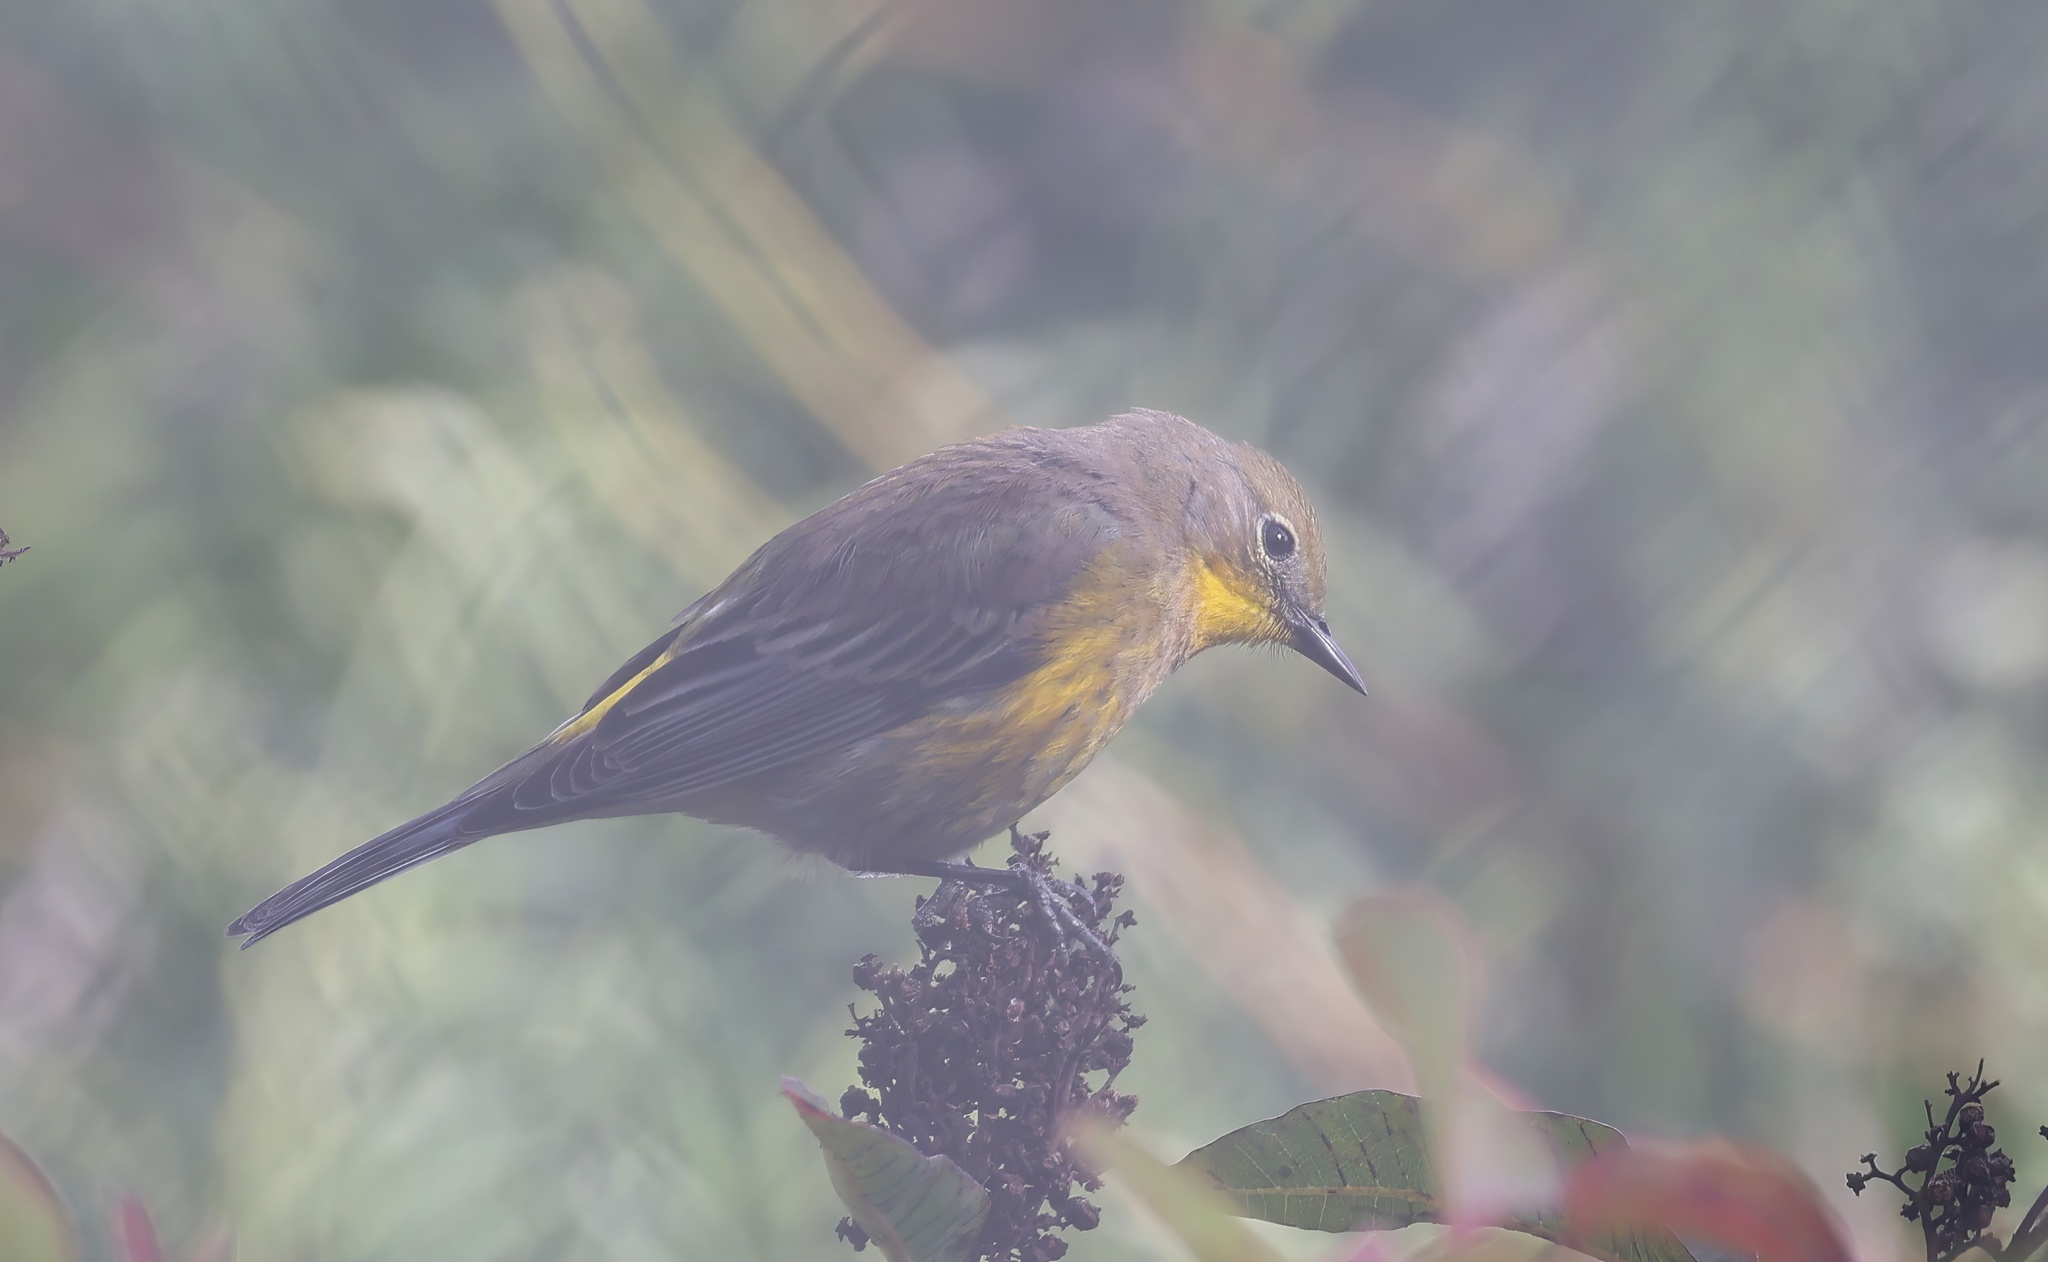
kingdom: Animalia
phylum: Chordata
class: Aves
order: Passeriformes
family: Parulidae
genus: Setophaga
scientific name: Setophaga
